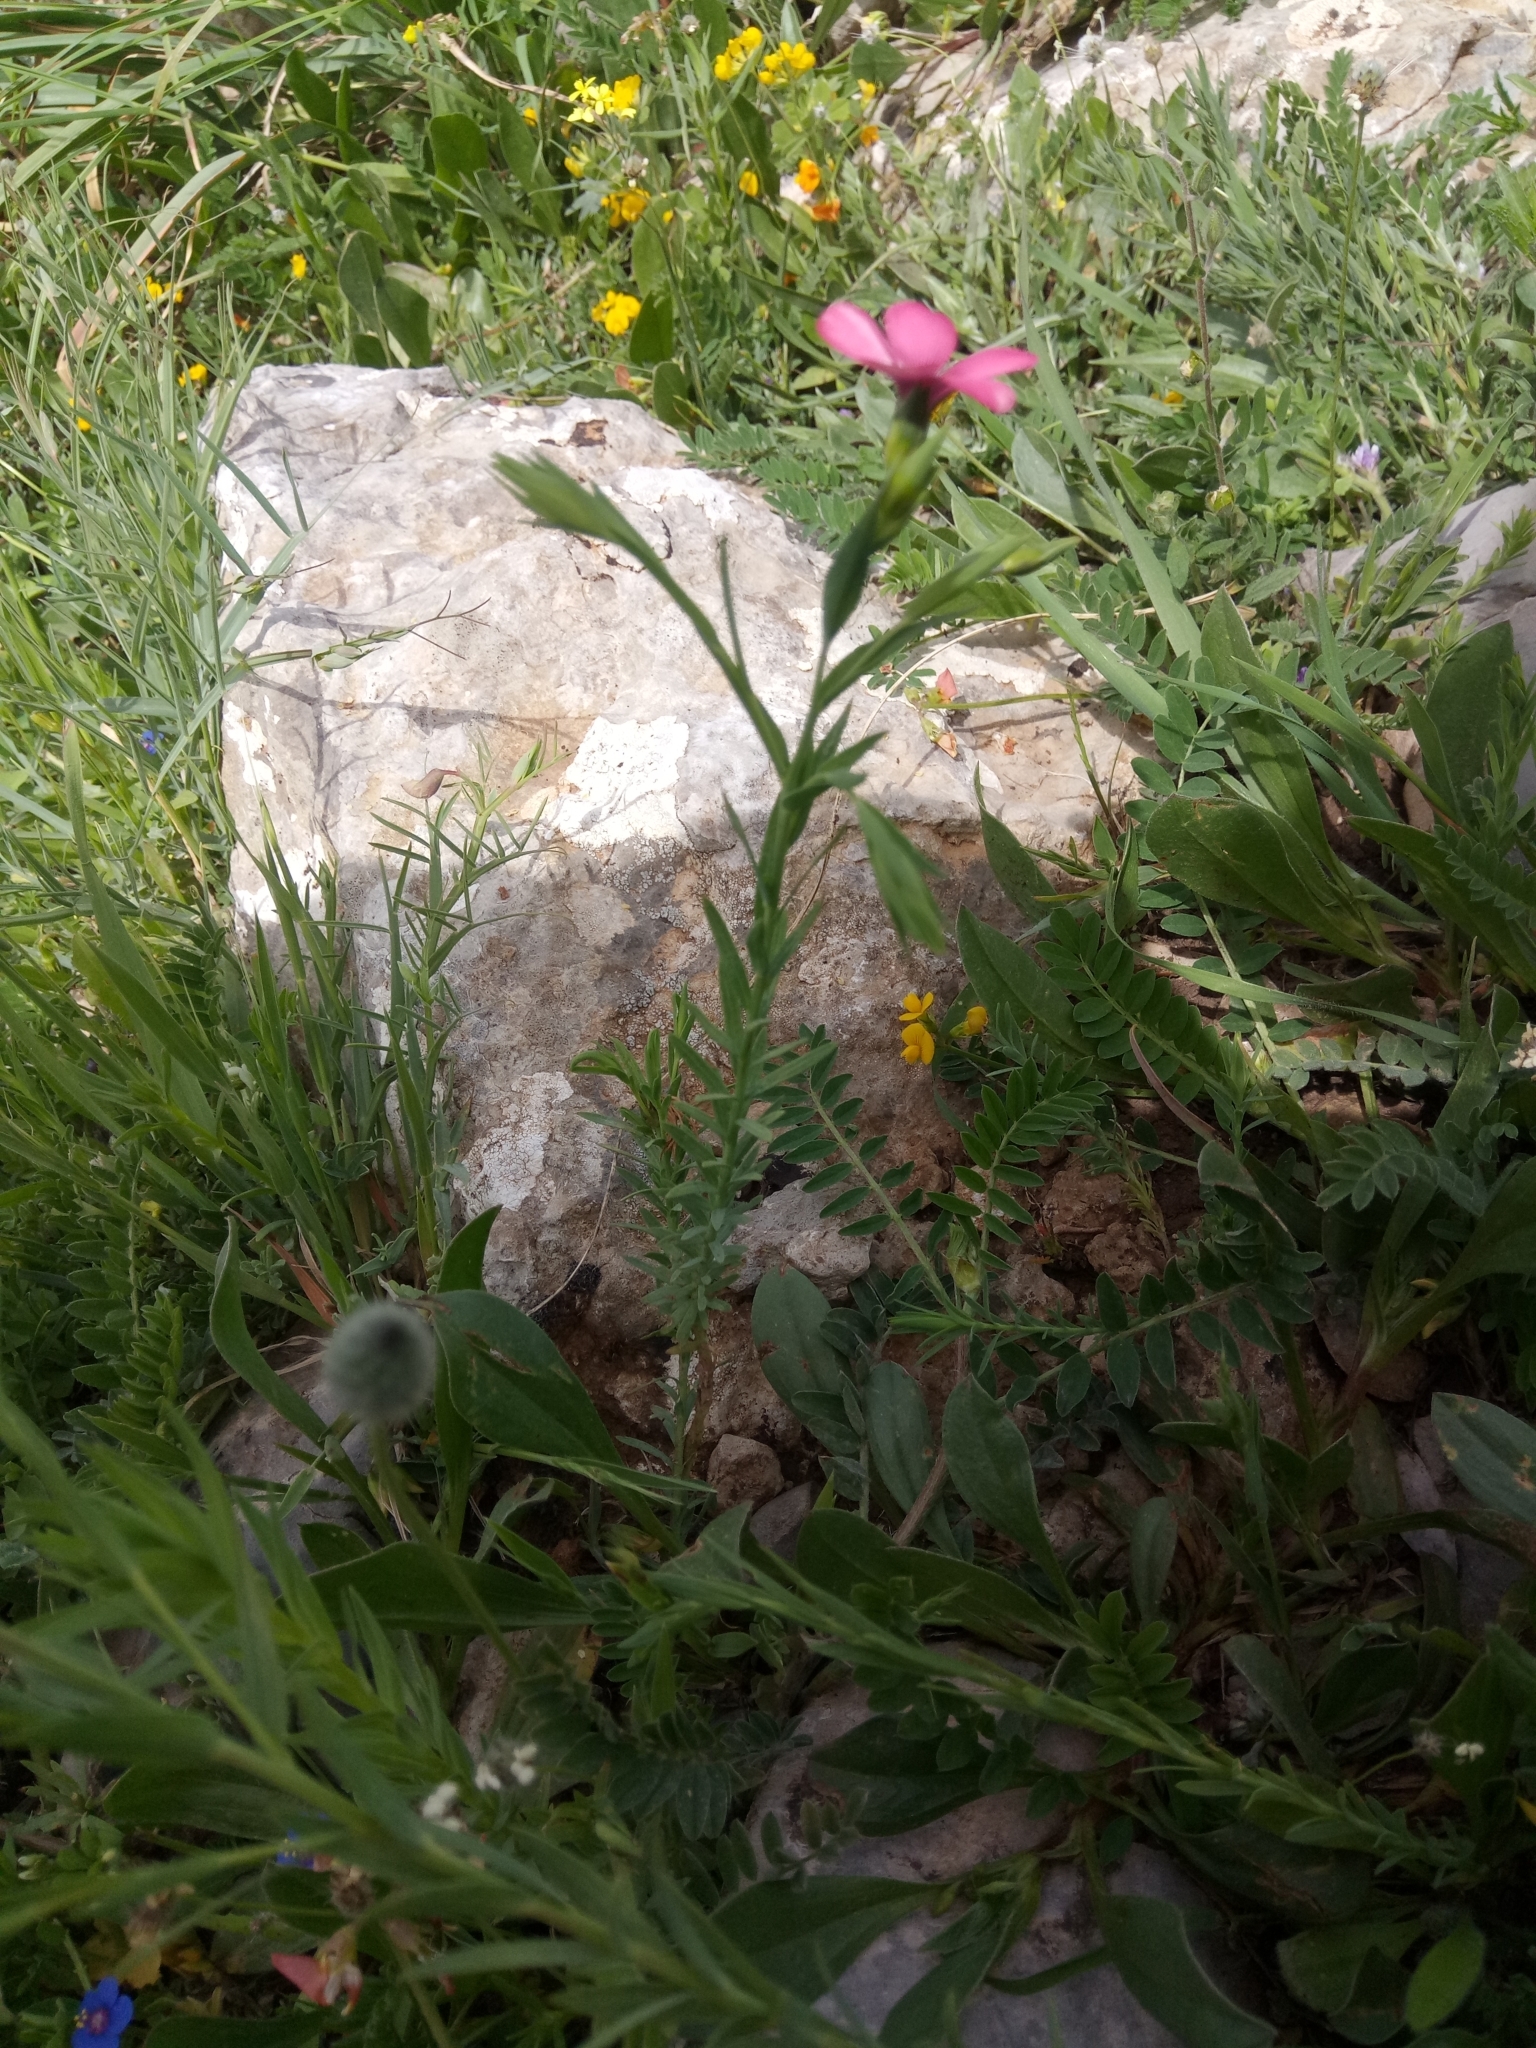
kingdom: Plantae
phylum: Tracheophyta
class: Magnoliopsida
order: Malpighiales
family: Linaceae
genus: Linum
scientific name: Linum decumbens
